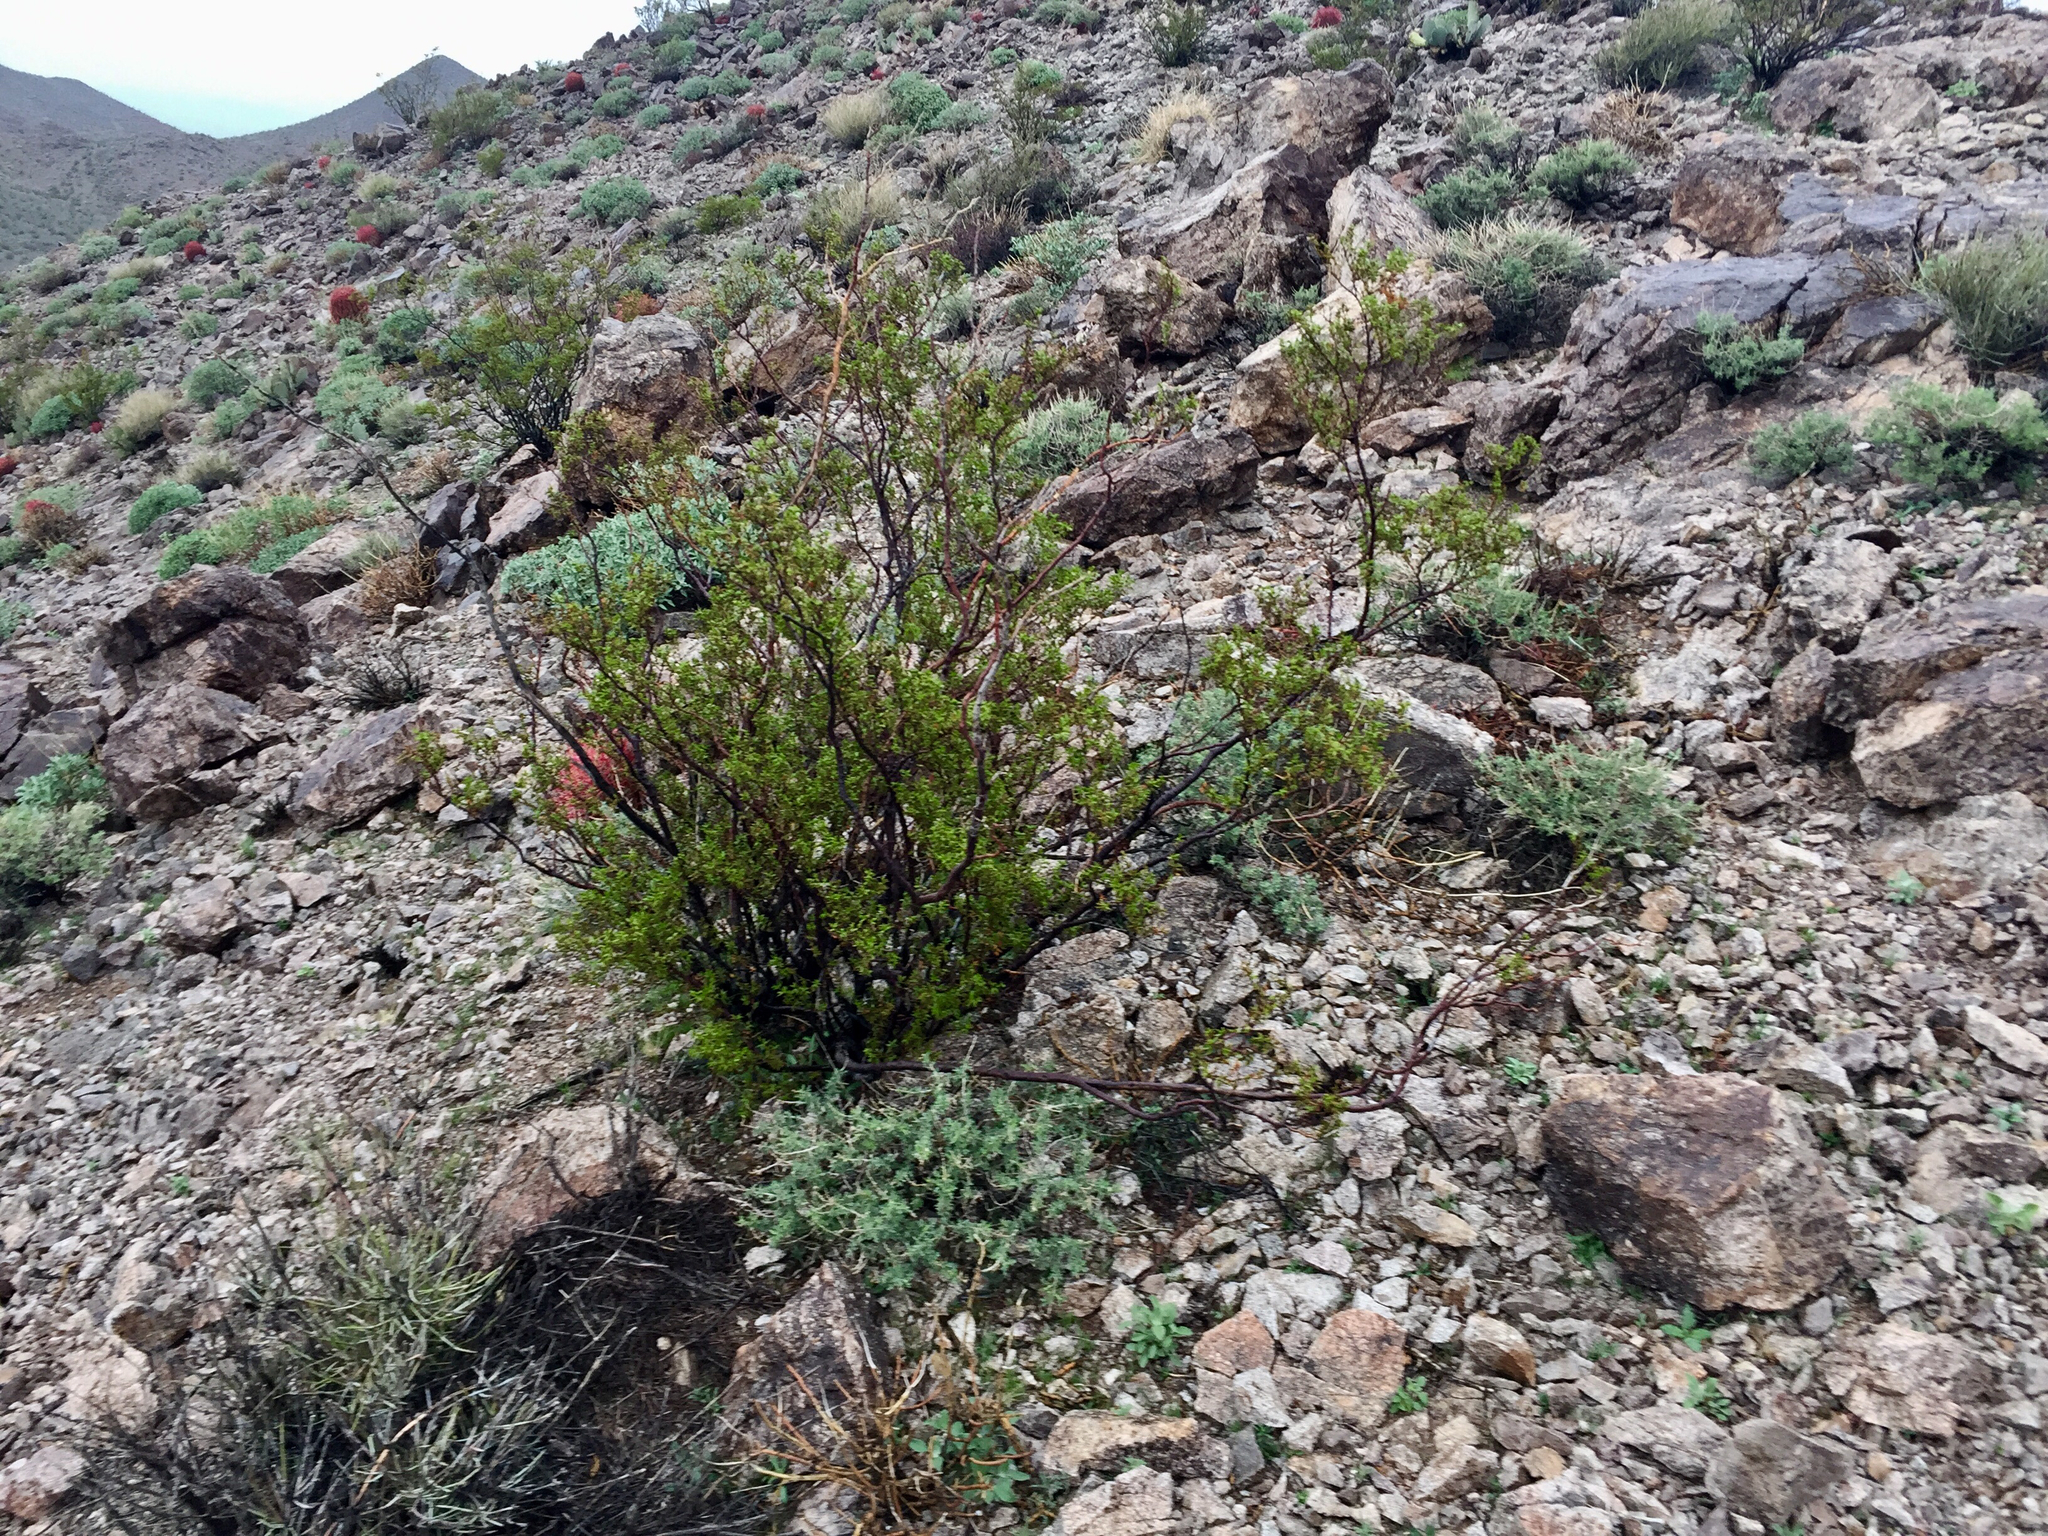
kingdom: Plantae
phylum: Tracheophyta
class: Magnoliopsida
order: Zygophyllales
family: Zygophyllaceae
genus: Larrea
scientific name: Larrea tridentata
